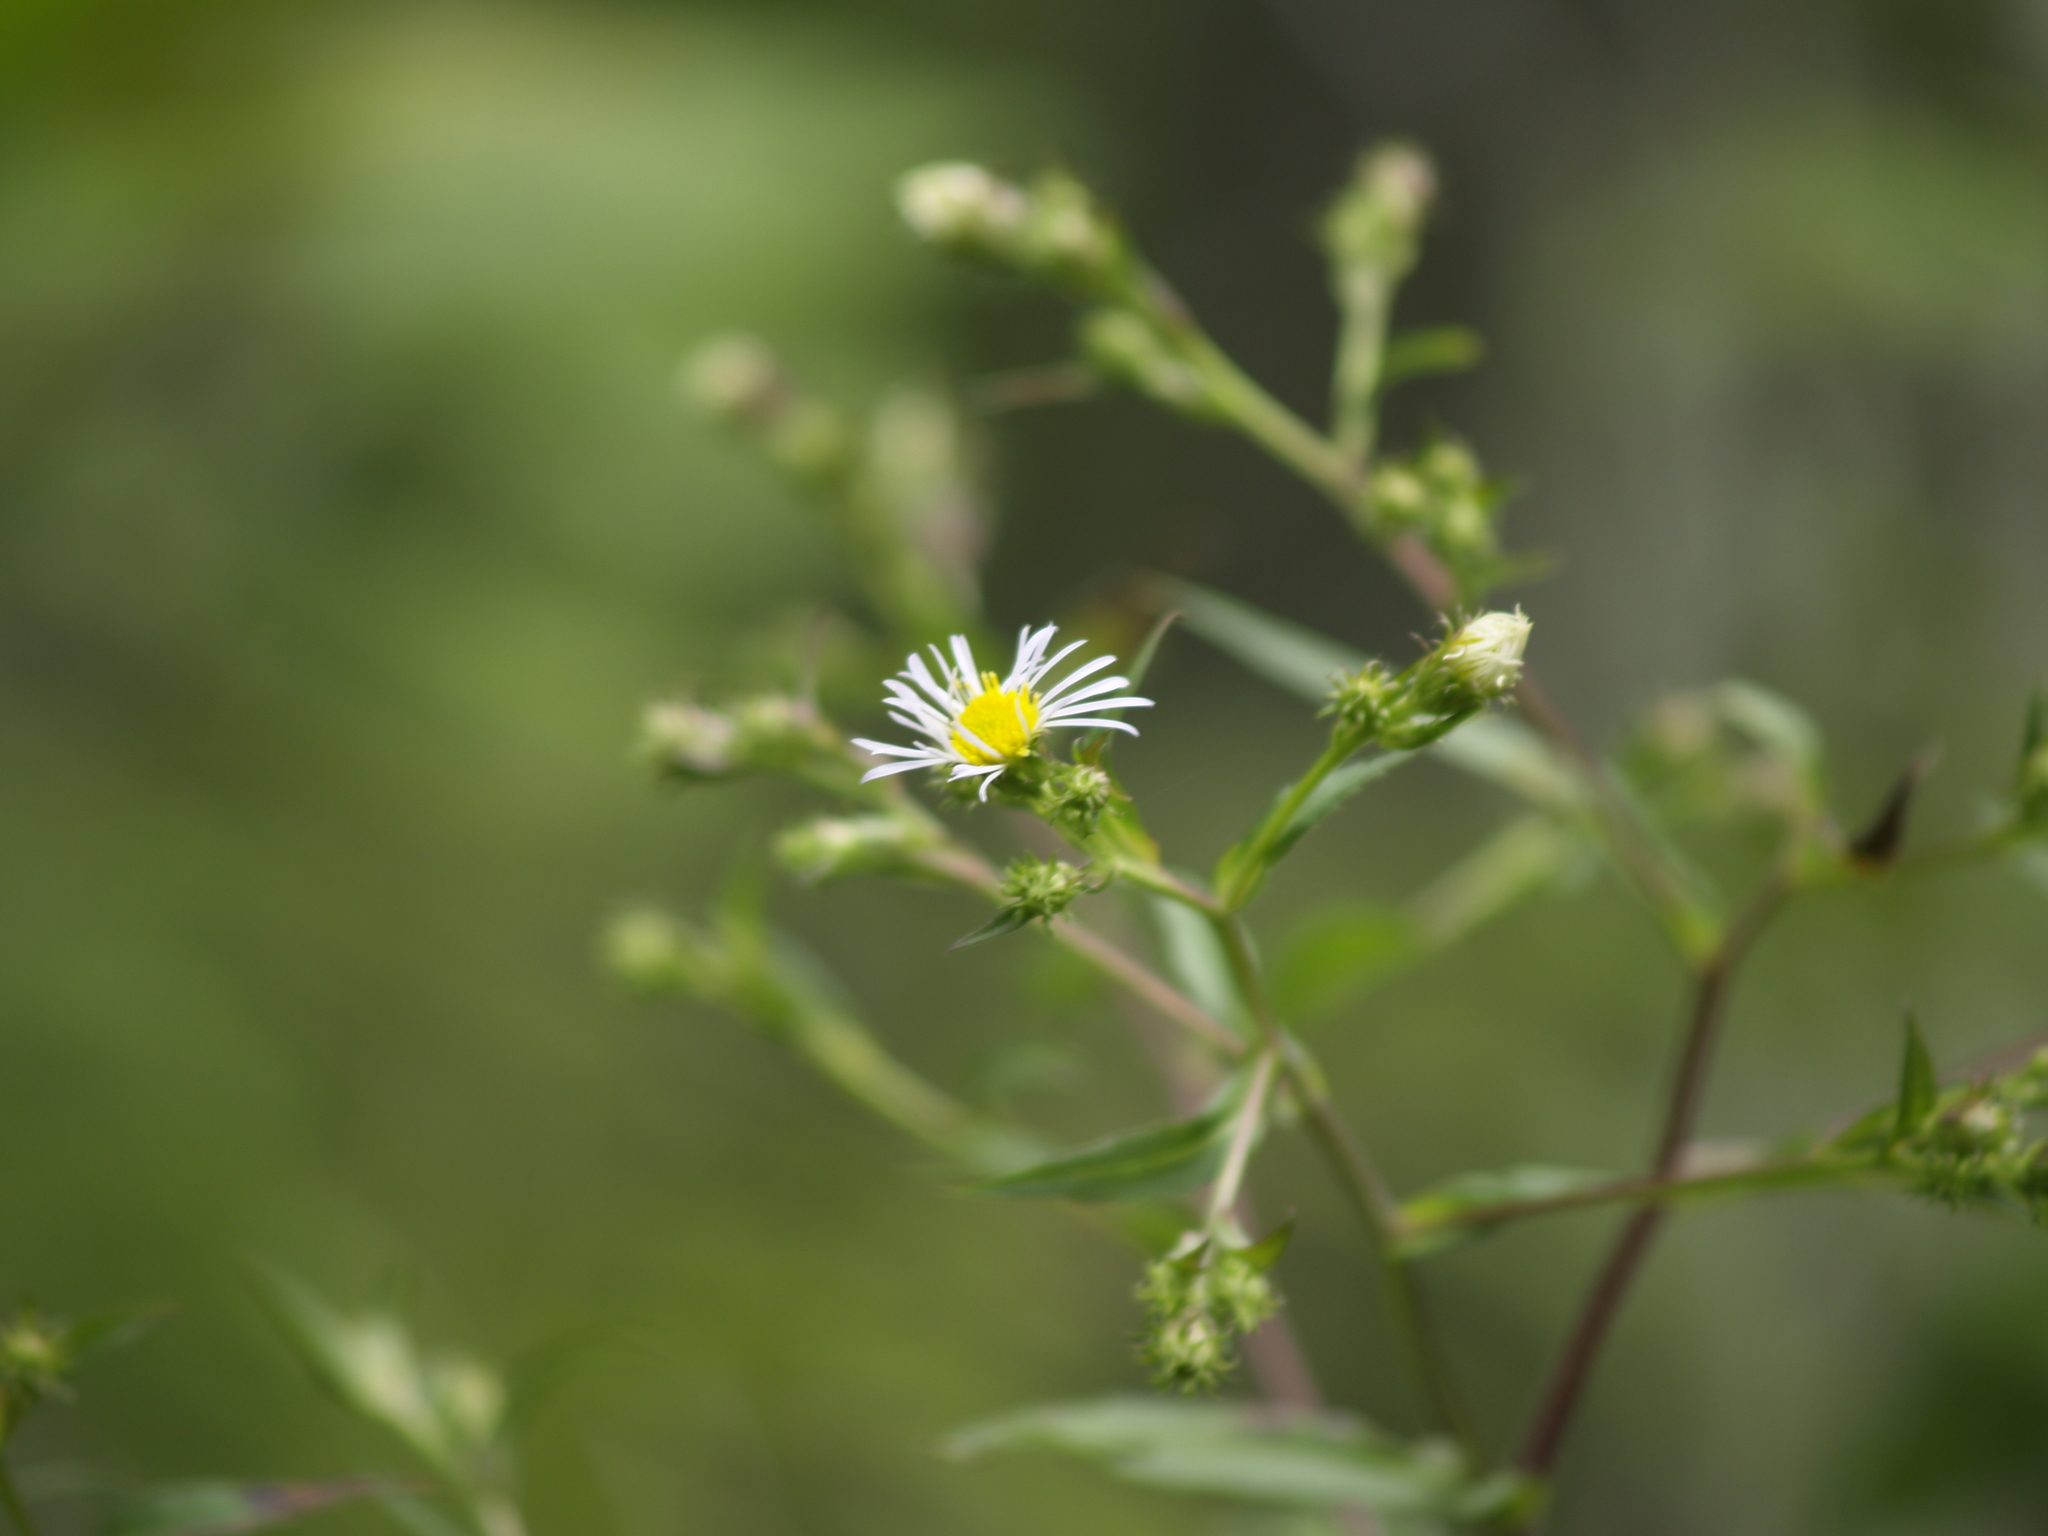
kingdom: Plantae
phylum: Tracheophyta
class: Magnoliopsida
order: Asterales
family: Asteraceae
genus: Symphyotrichum
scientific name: Symphyotrichum lanceolatum
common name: Panicled aster
